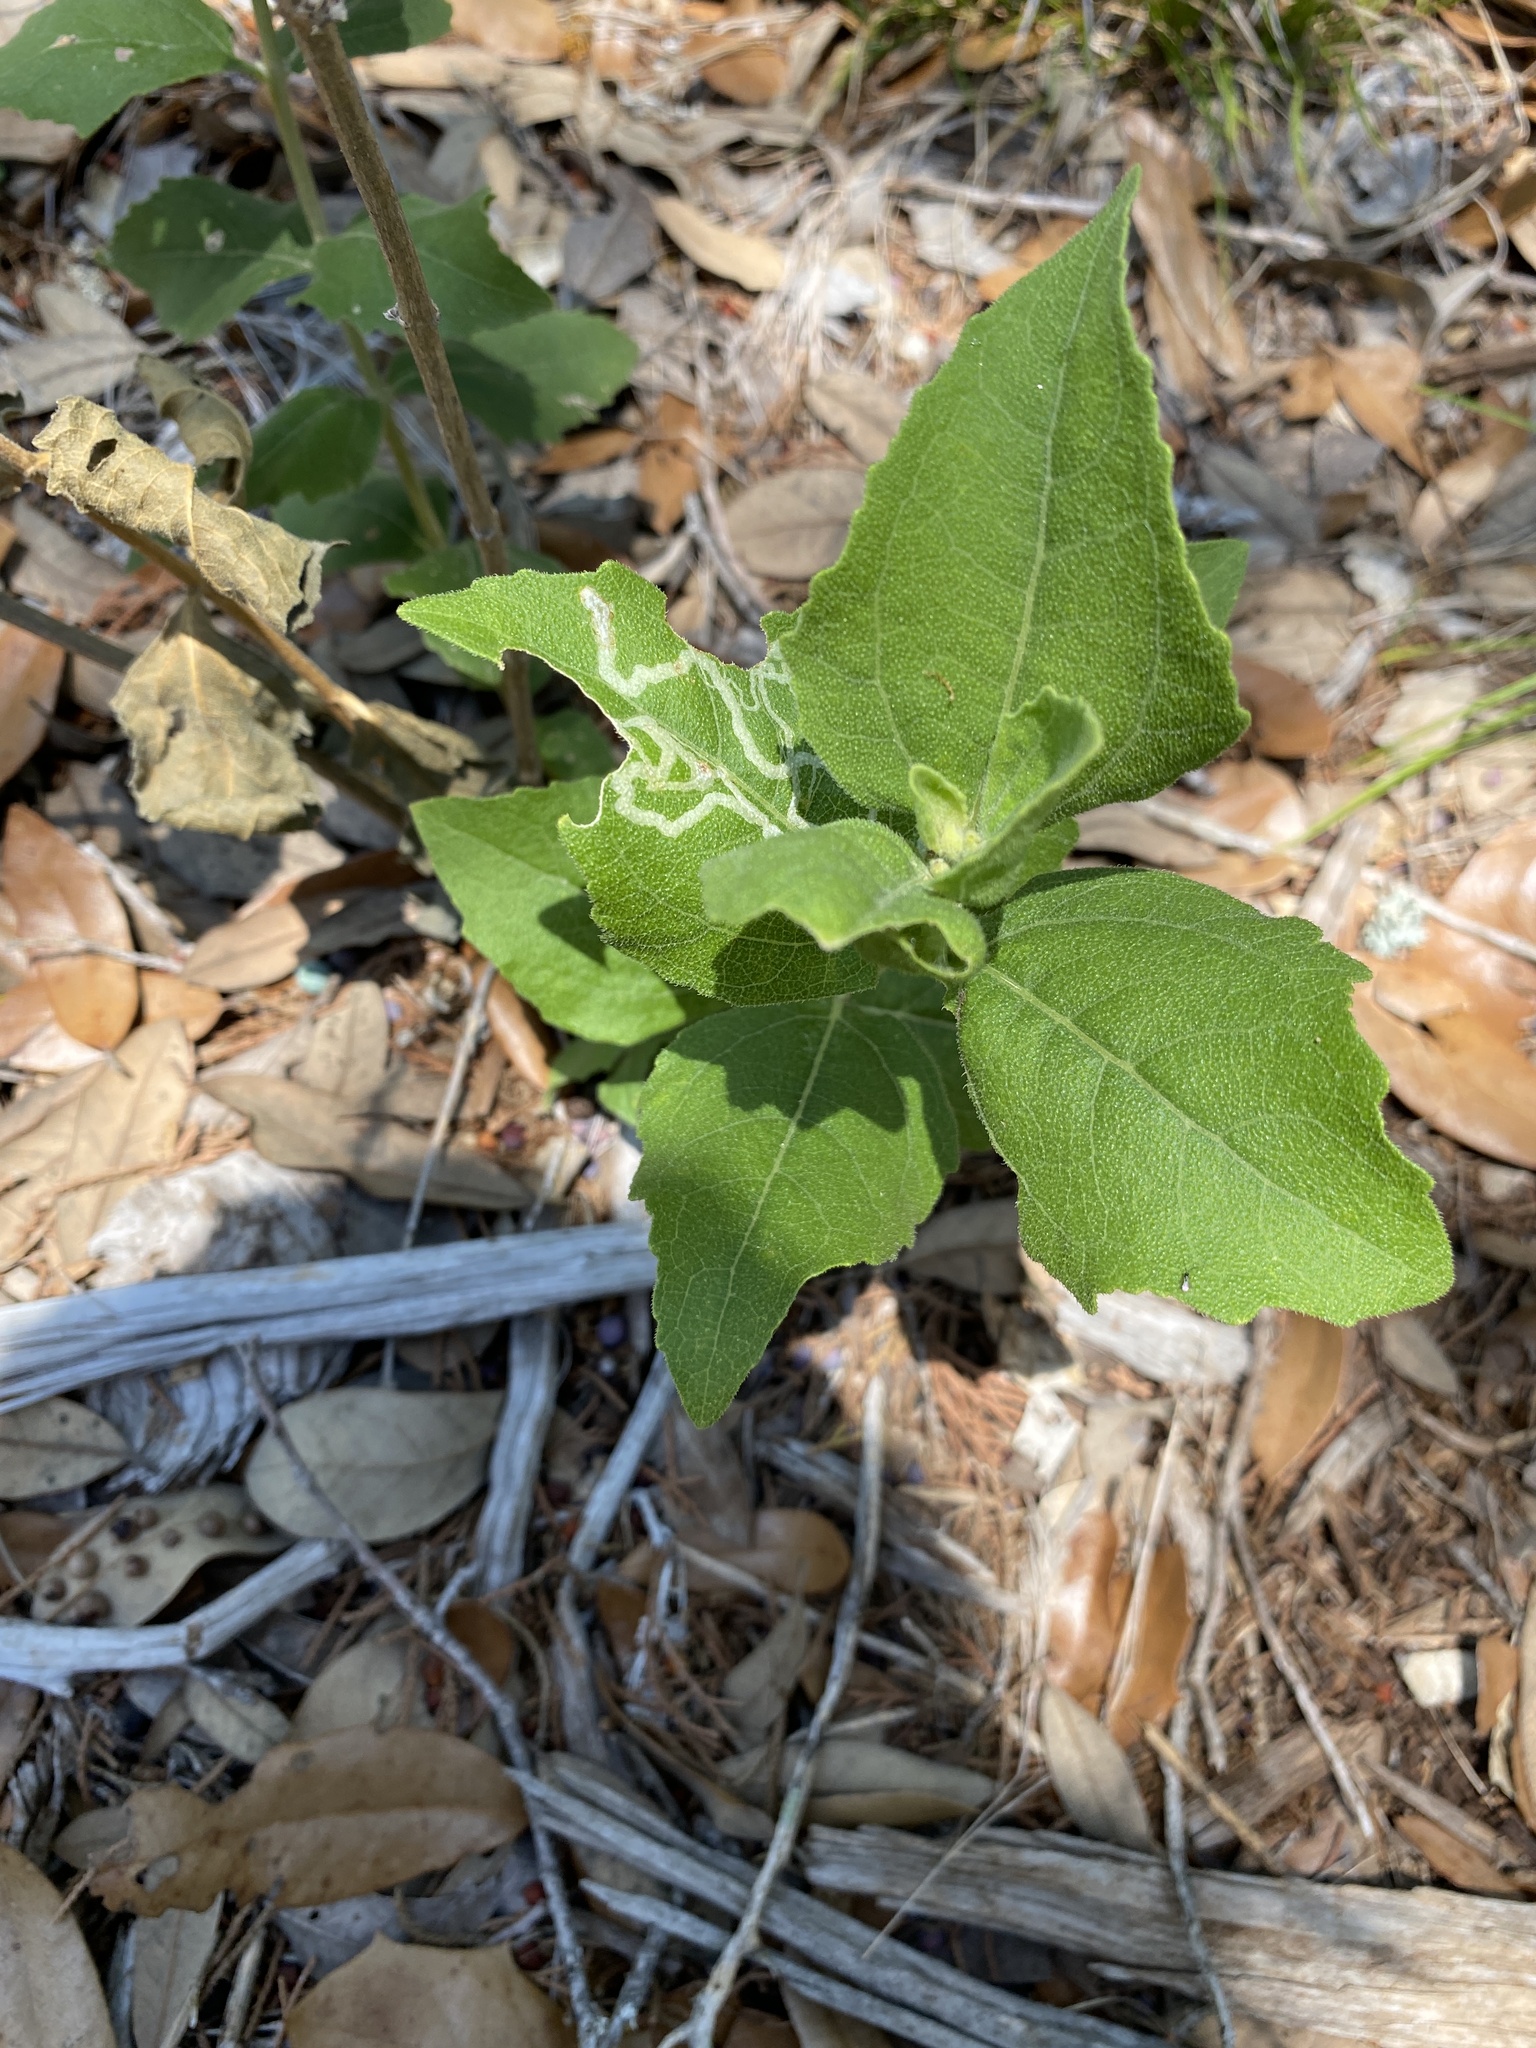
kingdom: Plantae
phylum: Tracheophyta
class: Magnoliopsida
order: Asterales
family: Asteraceae
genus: Verbesina
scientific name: Verbesina lindheimeri
